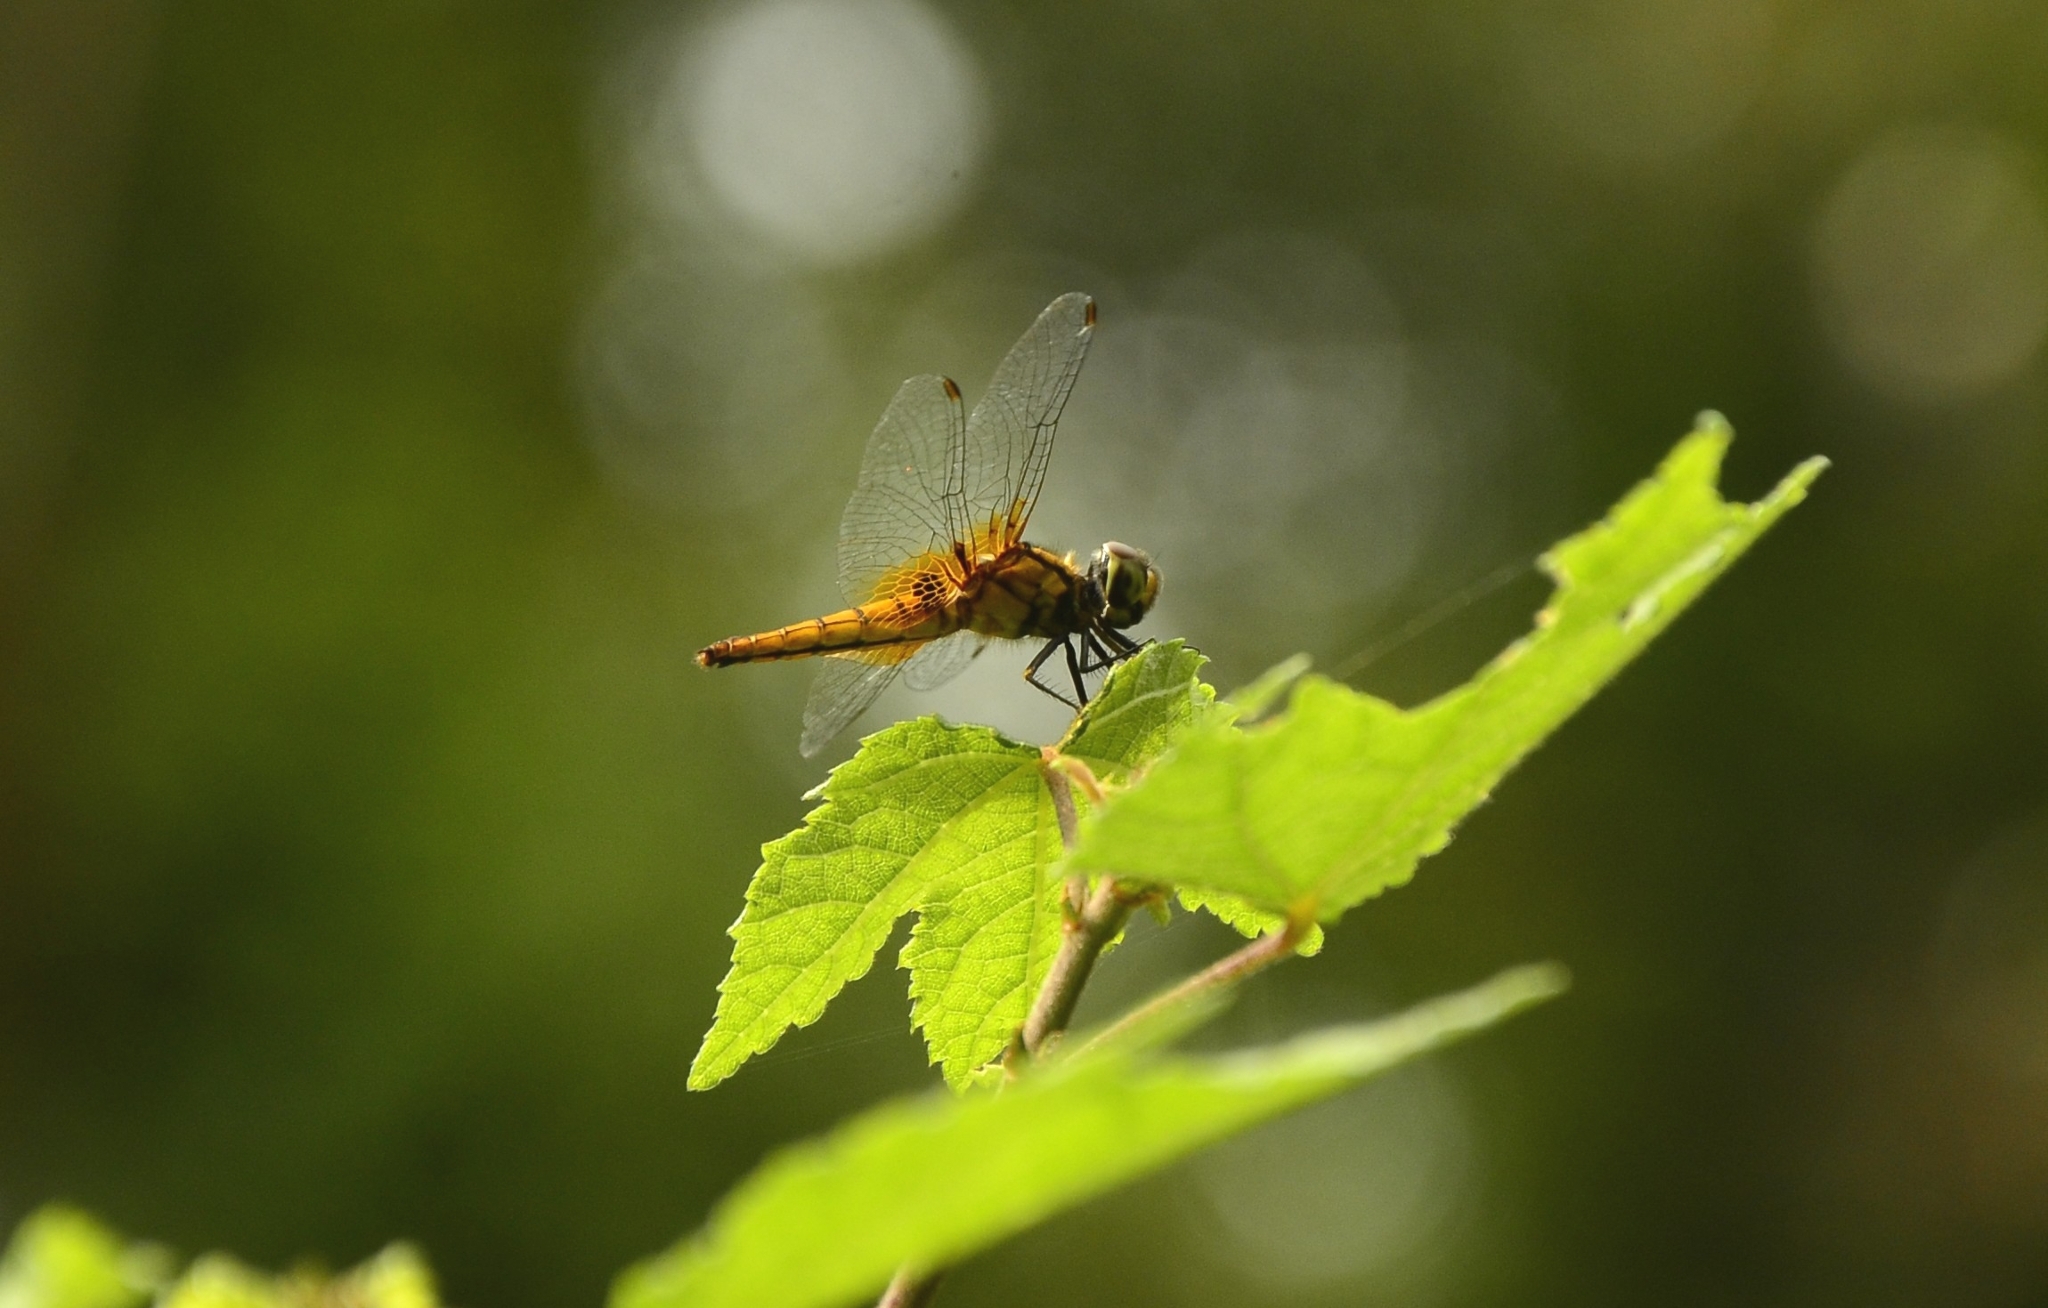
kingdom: Animalia
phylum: Arthropoda
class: Insecta
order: Odonata
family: Libellulidae
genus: Aethriamanta
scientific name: Aethriamanta brevipennis
